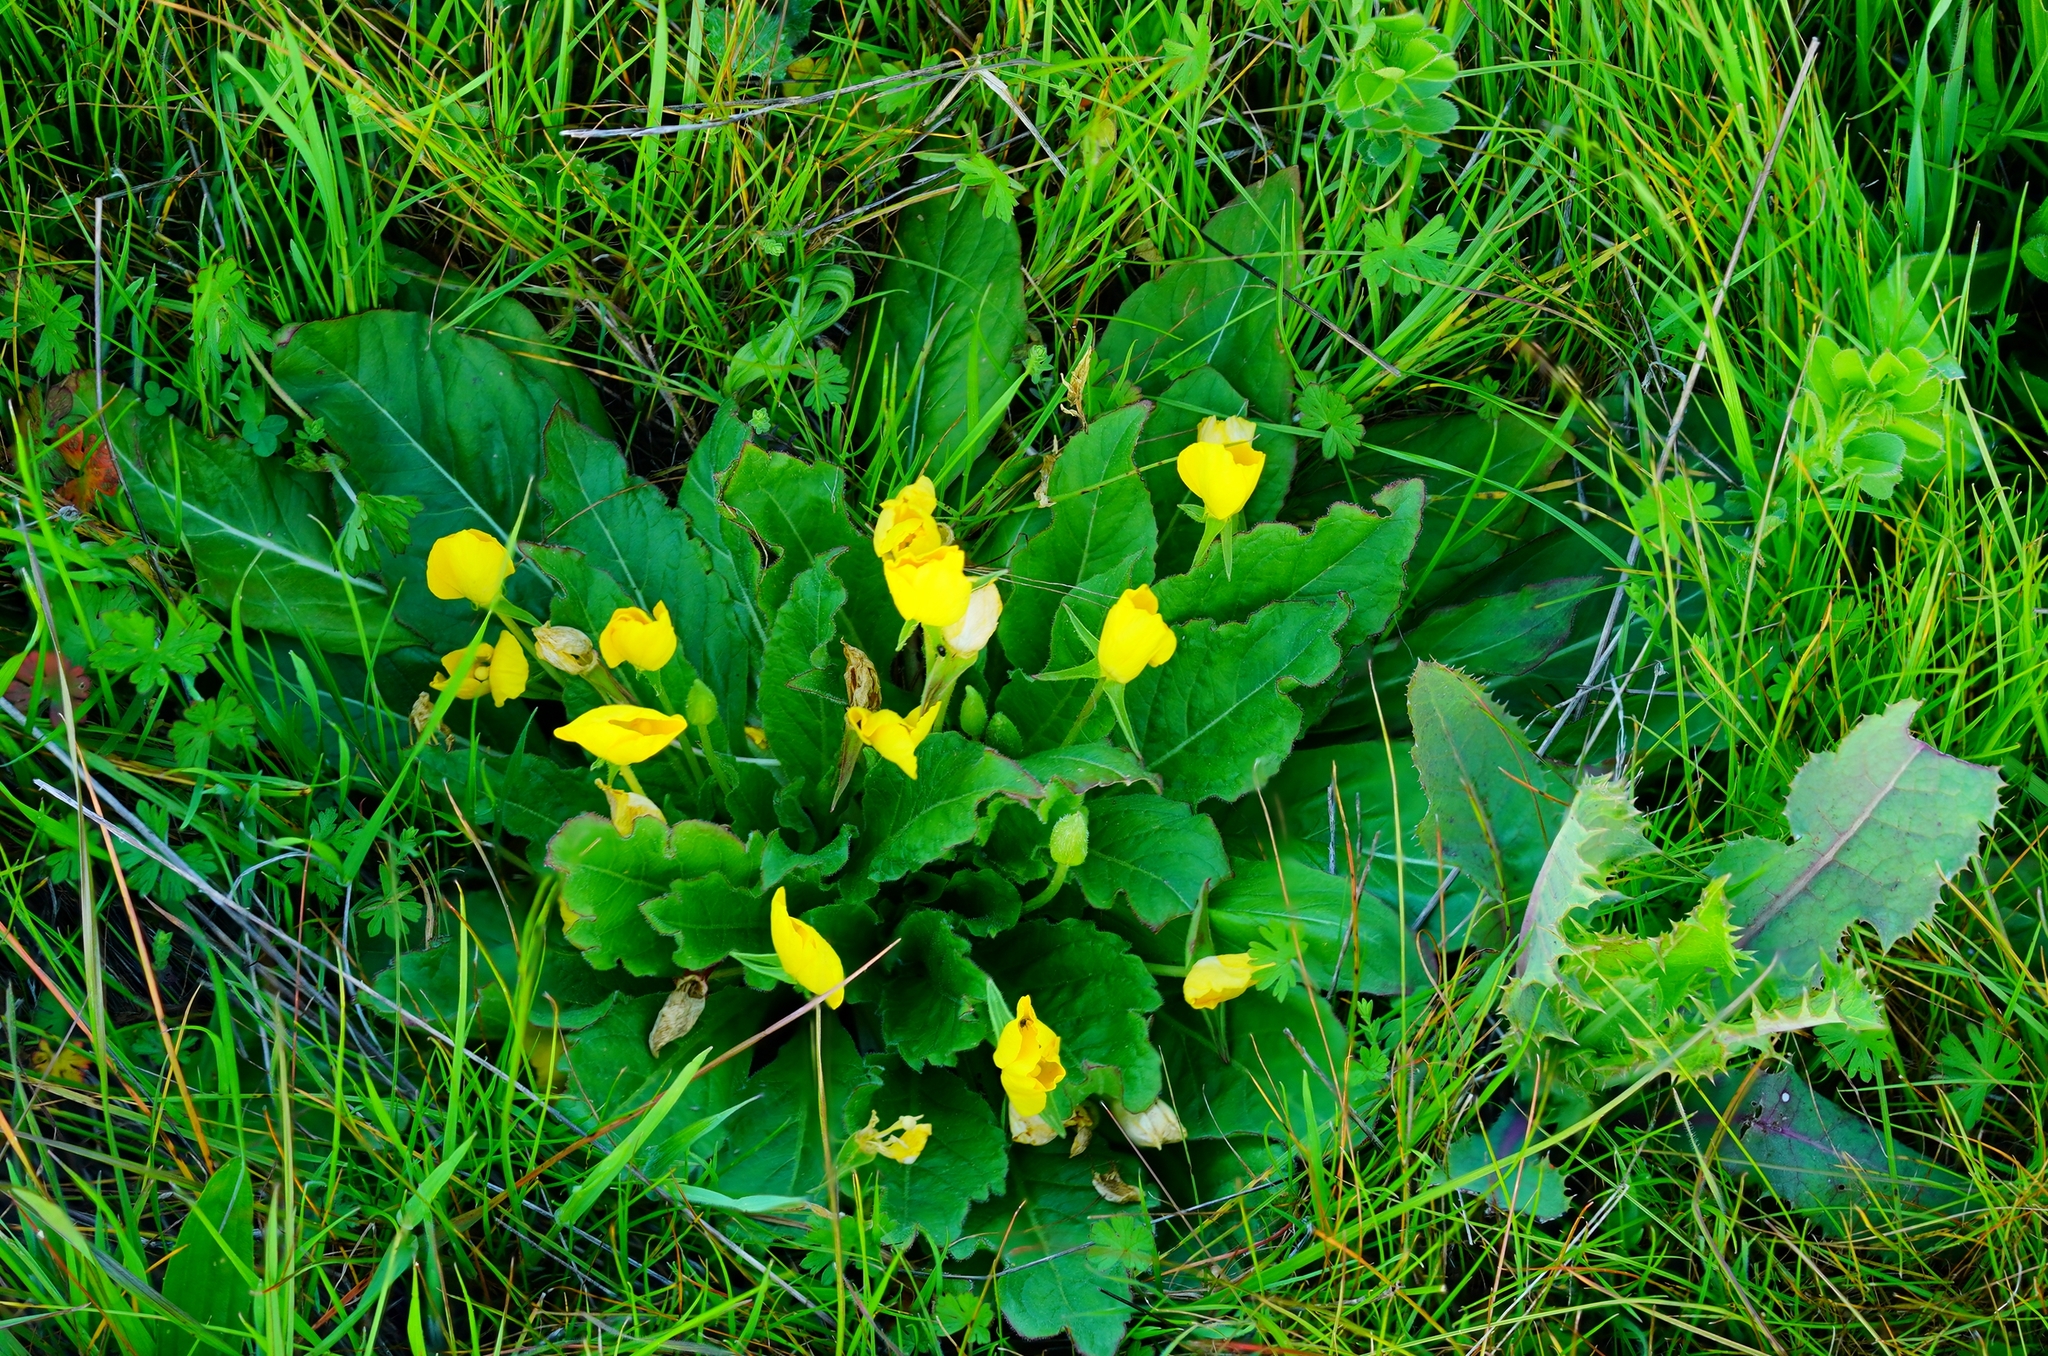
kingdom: Plantae
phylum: Tracheophyta
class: Magnoliopsida
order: Myrtales
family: Onagraceae
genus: Taraxia
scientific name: Taraxia ovata
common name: Goldeneggs
